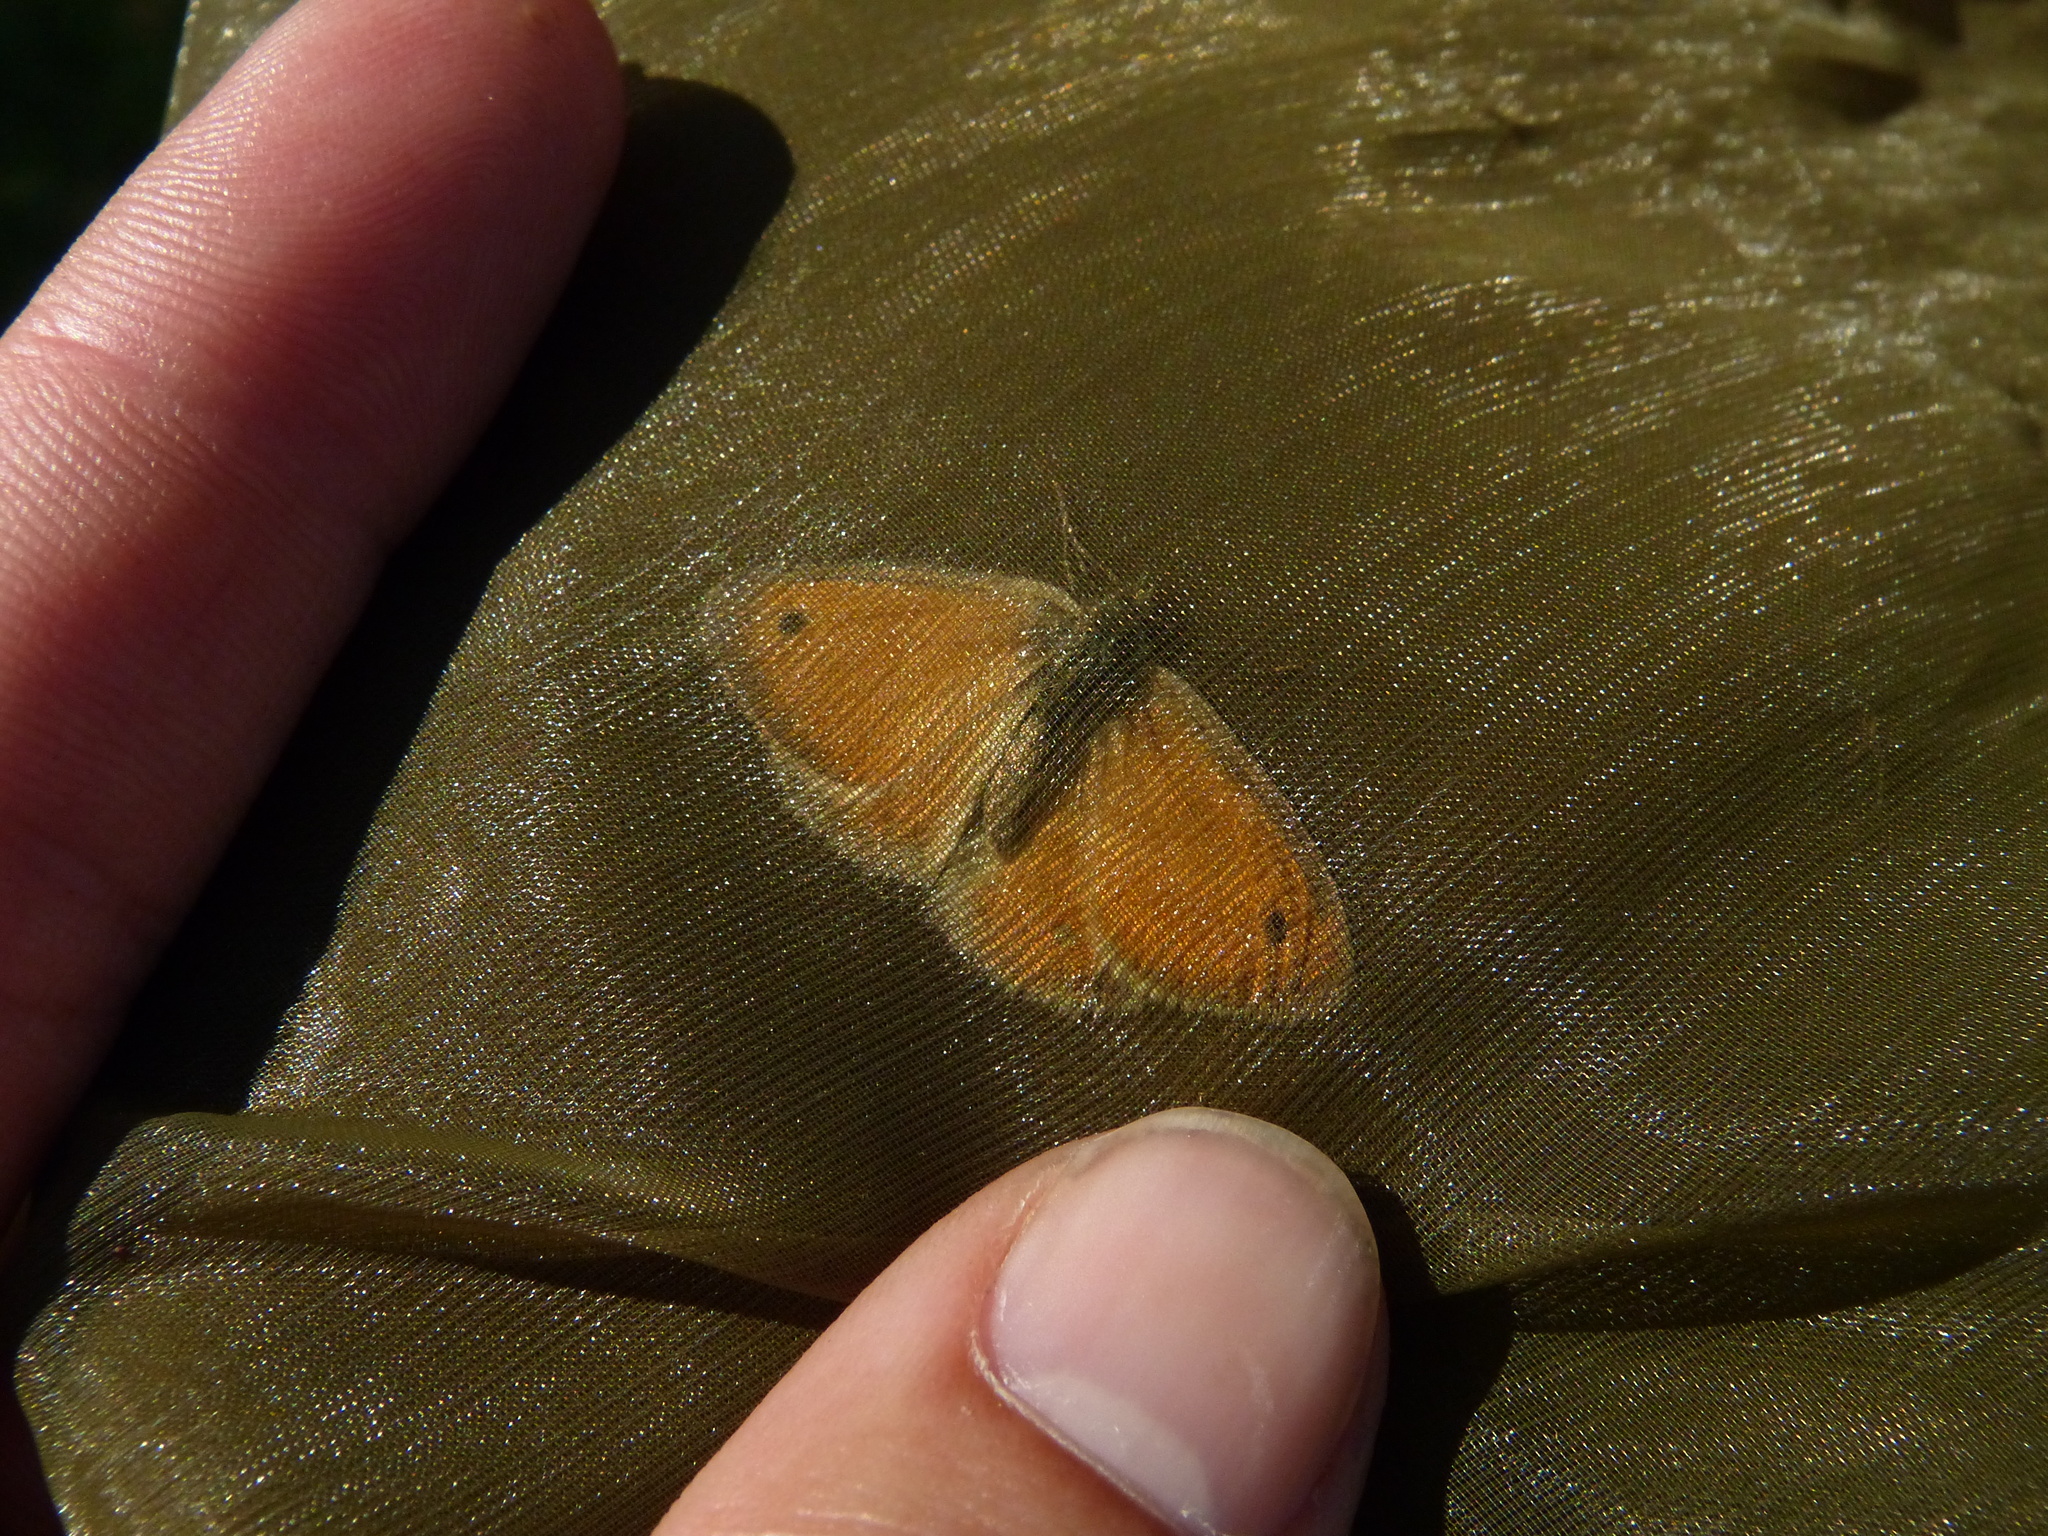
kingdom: Animalia
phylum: Arthropoda
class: Insecta
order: Lepidoptera
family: Nymphalidae
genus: Coenonympha
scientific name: Coenonympha pamphilus
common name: Small heath
